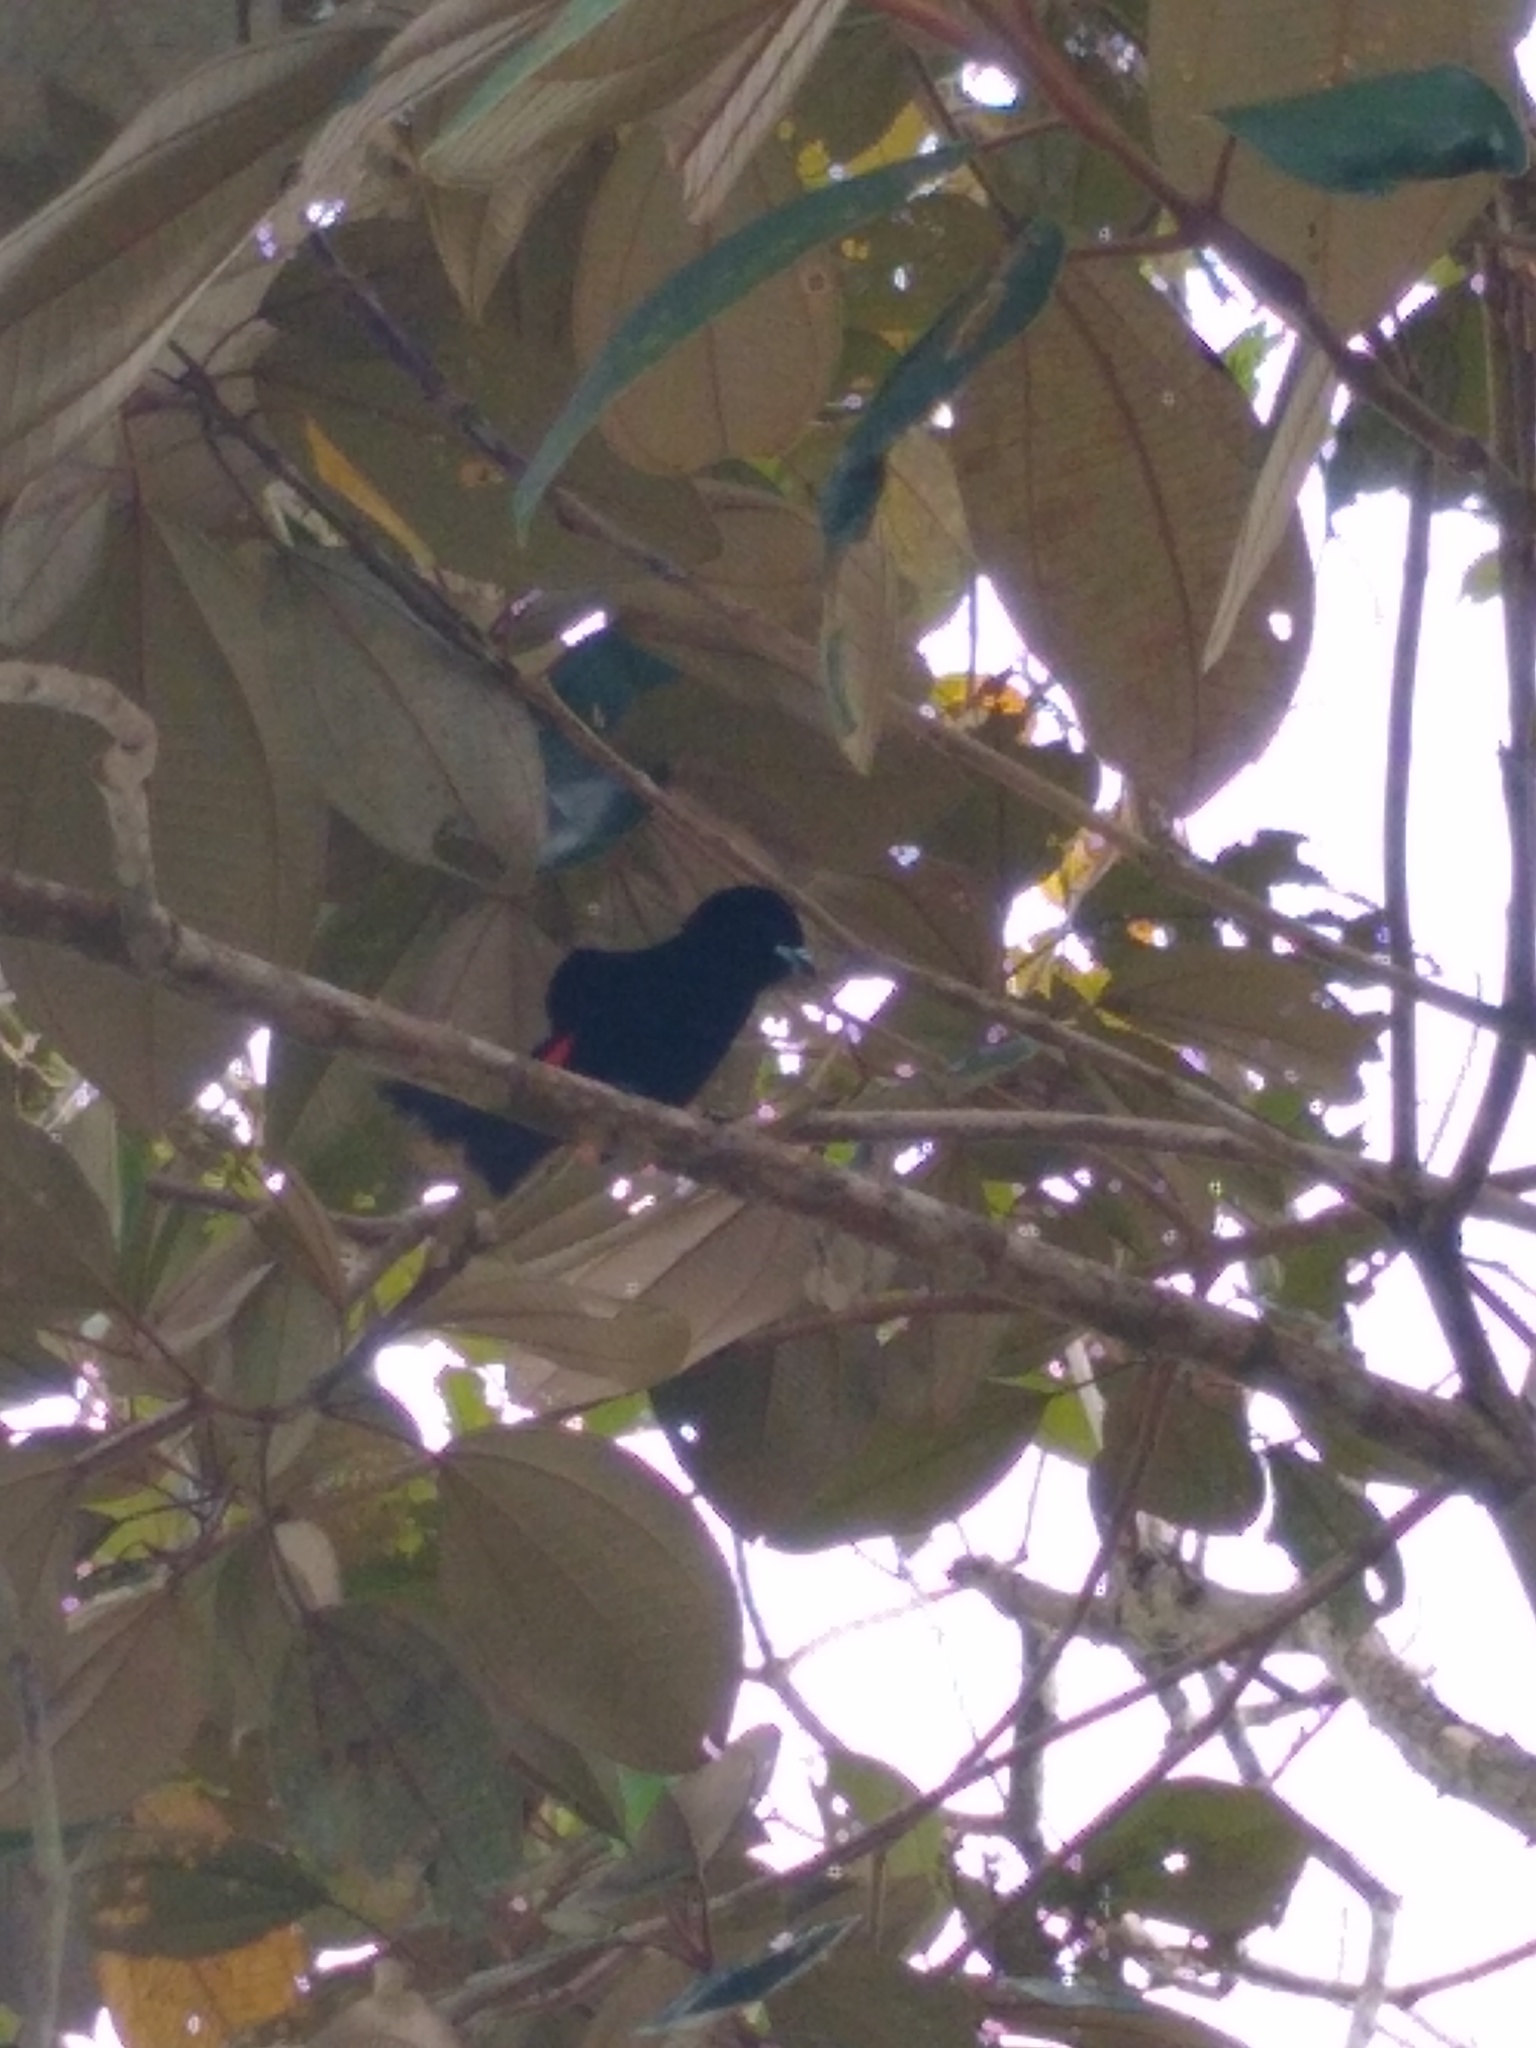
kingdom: Animalia
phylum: Chordata
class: Aves
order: Passeriformes
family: Thraupidae
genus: Ramphocelus
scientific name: Ramphocelus passerinii
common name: Passerini's tanager
